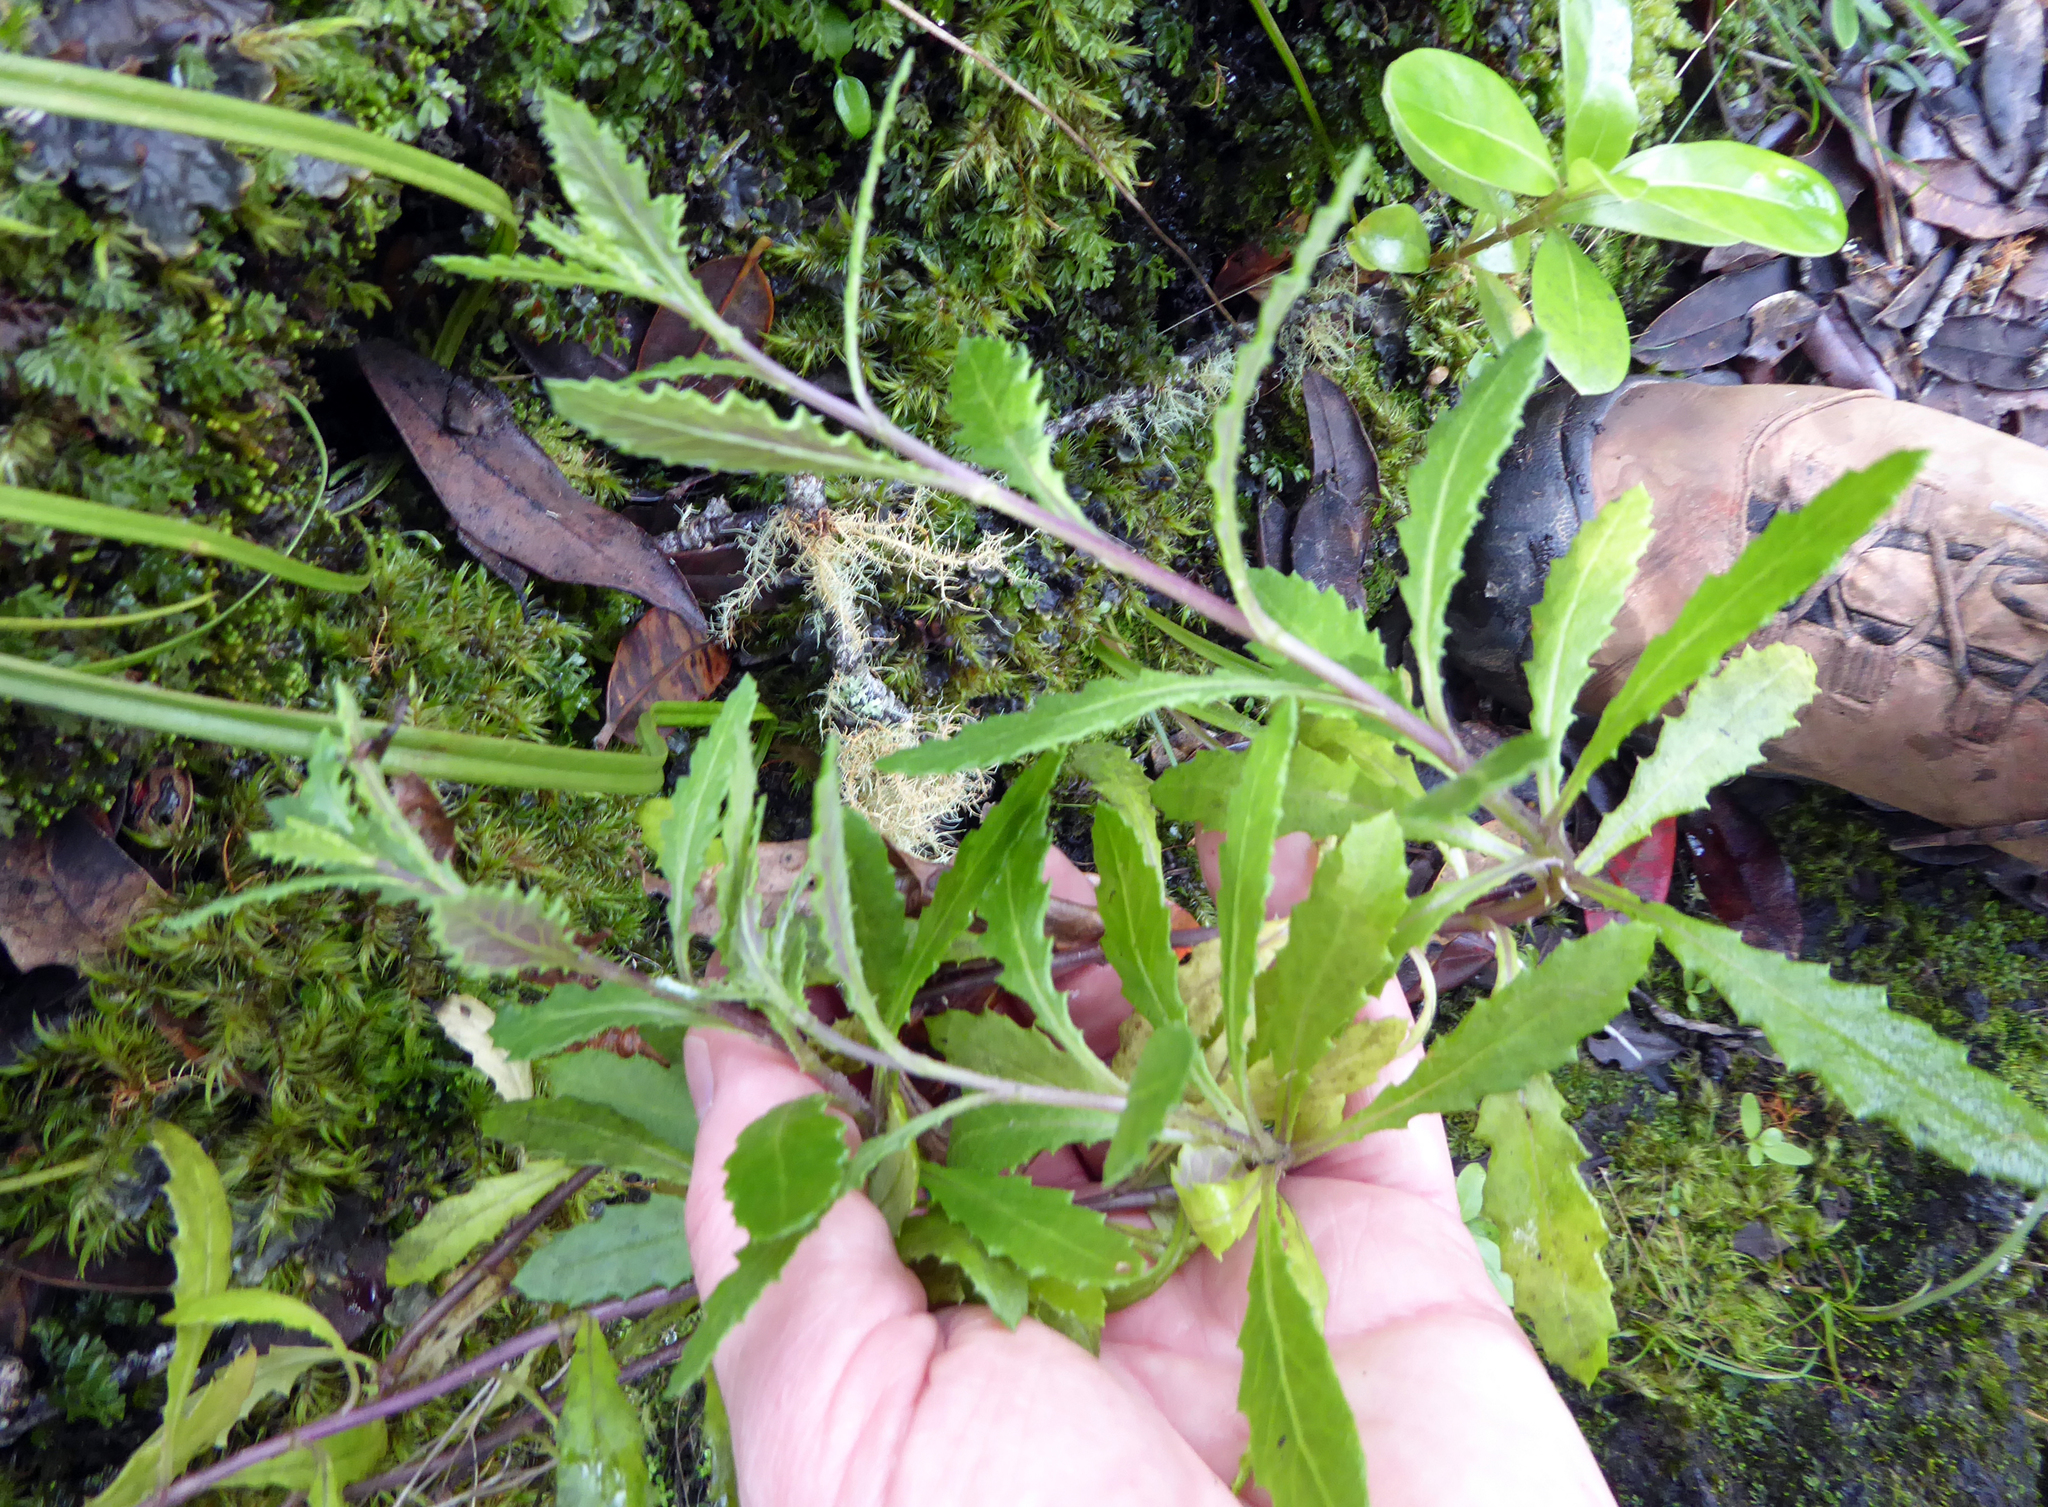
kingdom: Plantae
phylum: Tracheophyta
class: Magnoliopsida
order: Asterales
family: Asteraceae
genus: Senecio
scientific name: Senecio biserratus
